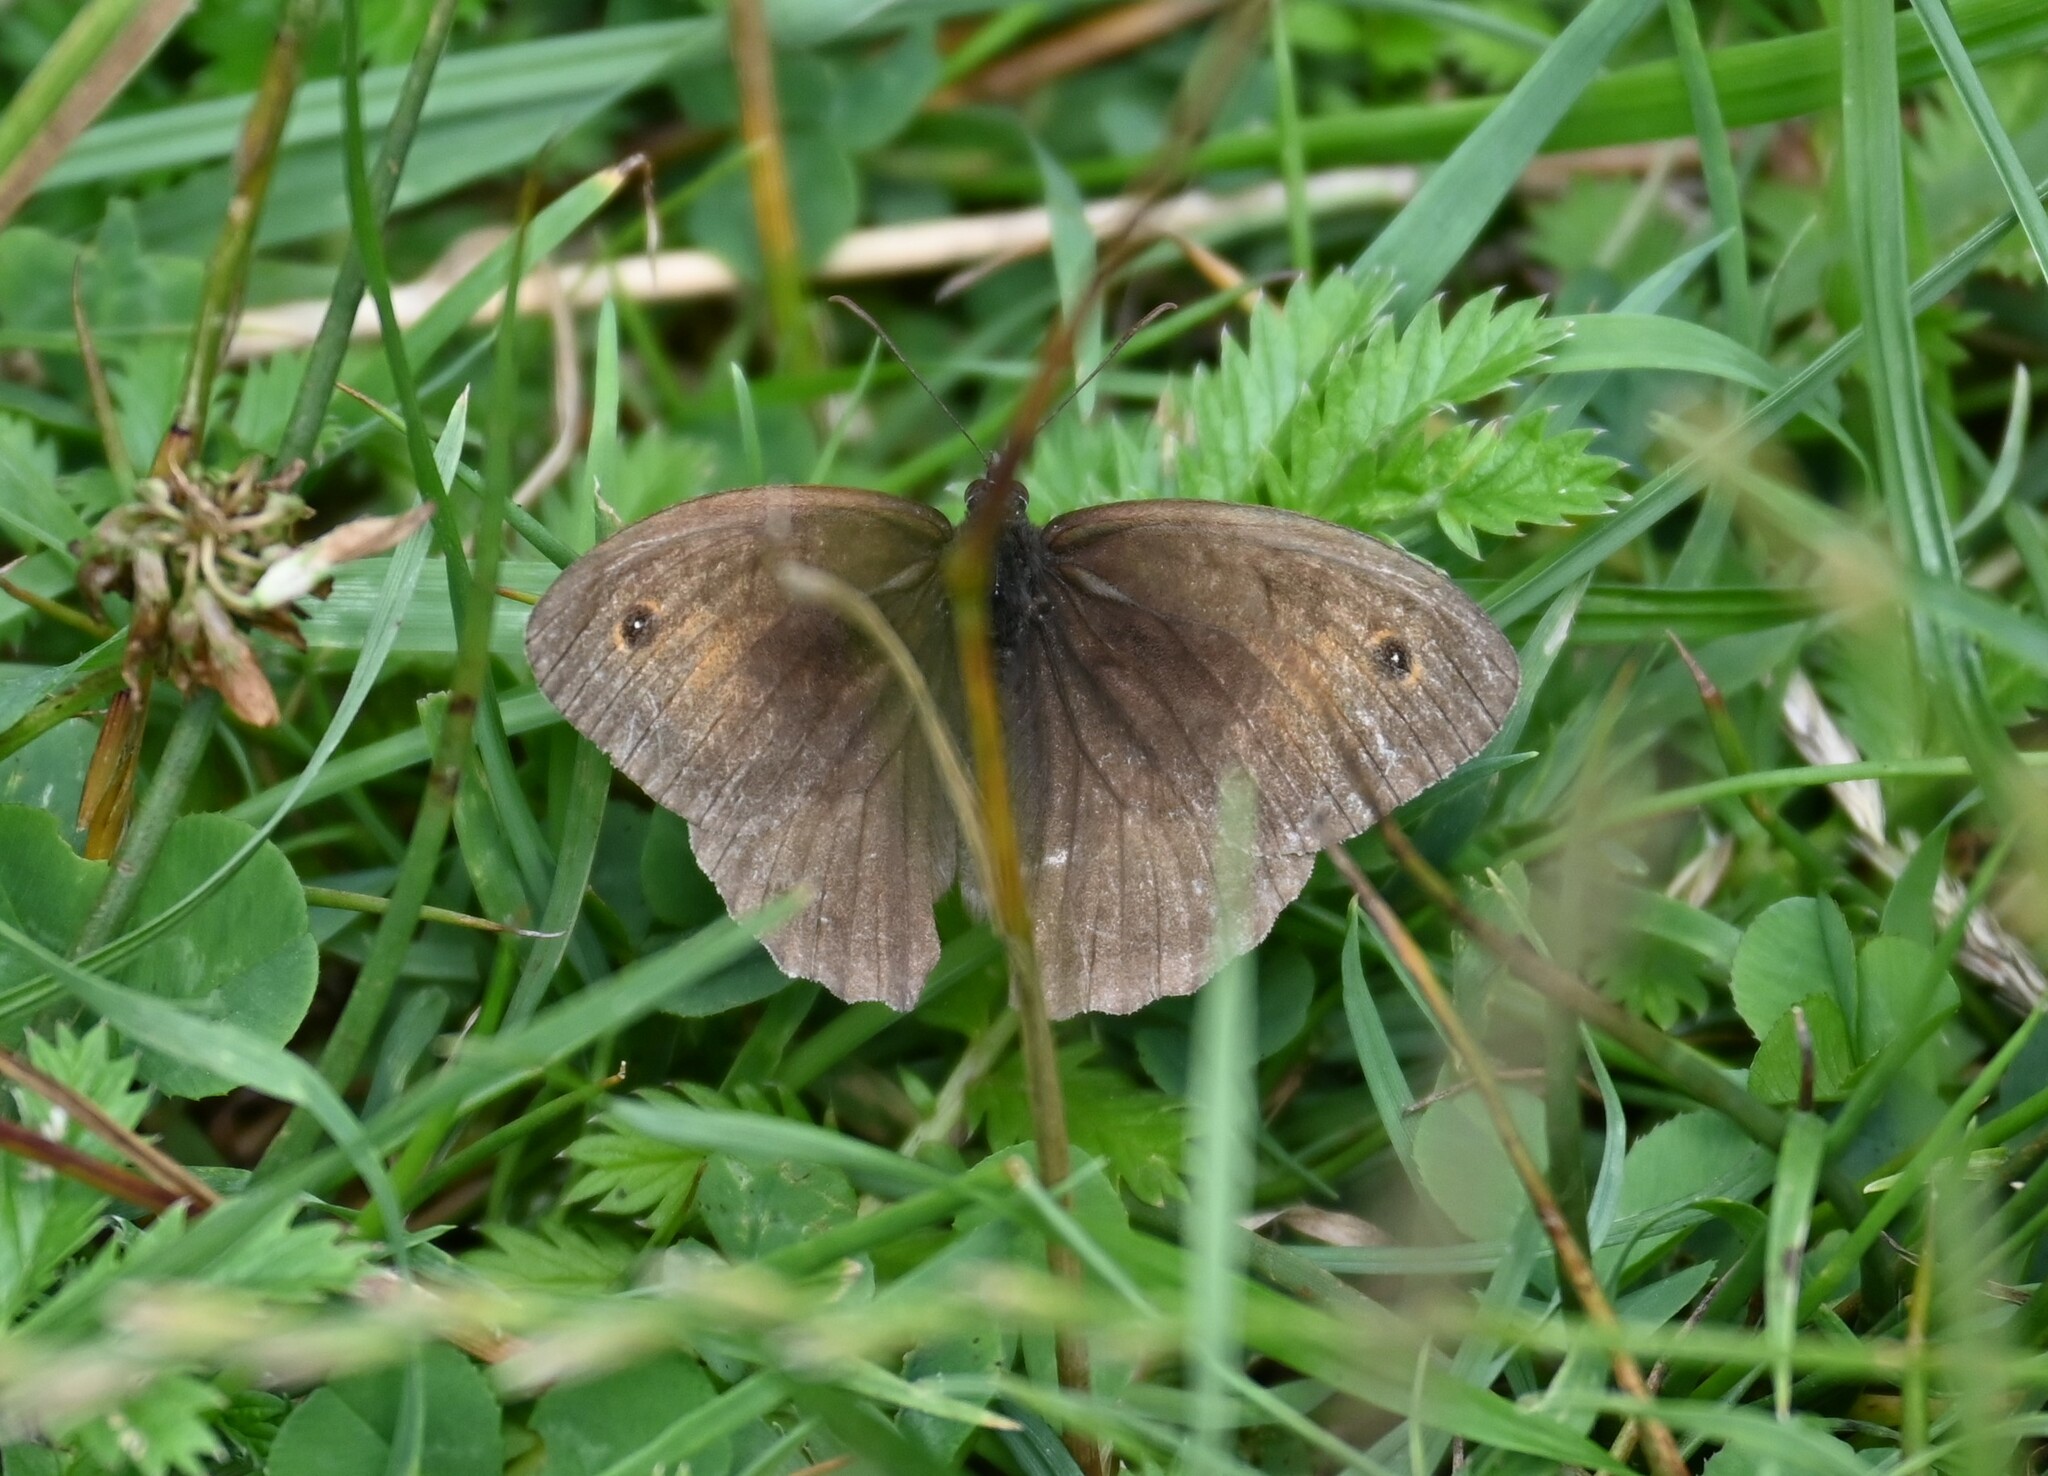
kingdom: Animalia
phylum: Arthropoda
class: Insecta
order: Lepidoptera
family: Nymphalidae
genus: Maniola
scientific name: Maniola jurtina
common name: Meadow brown
